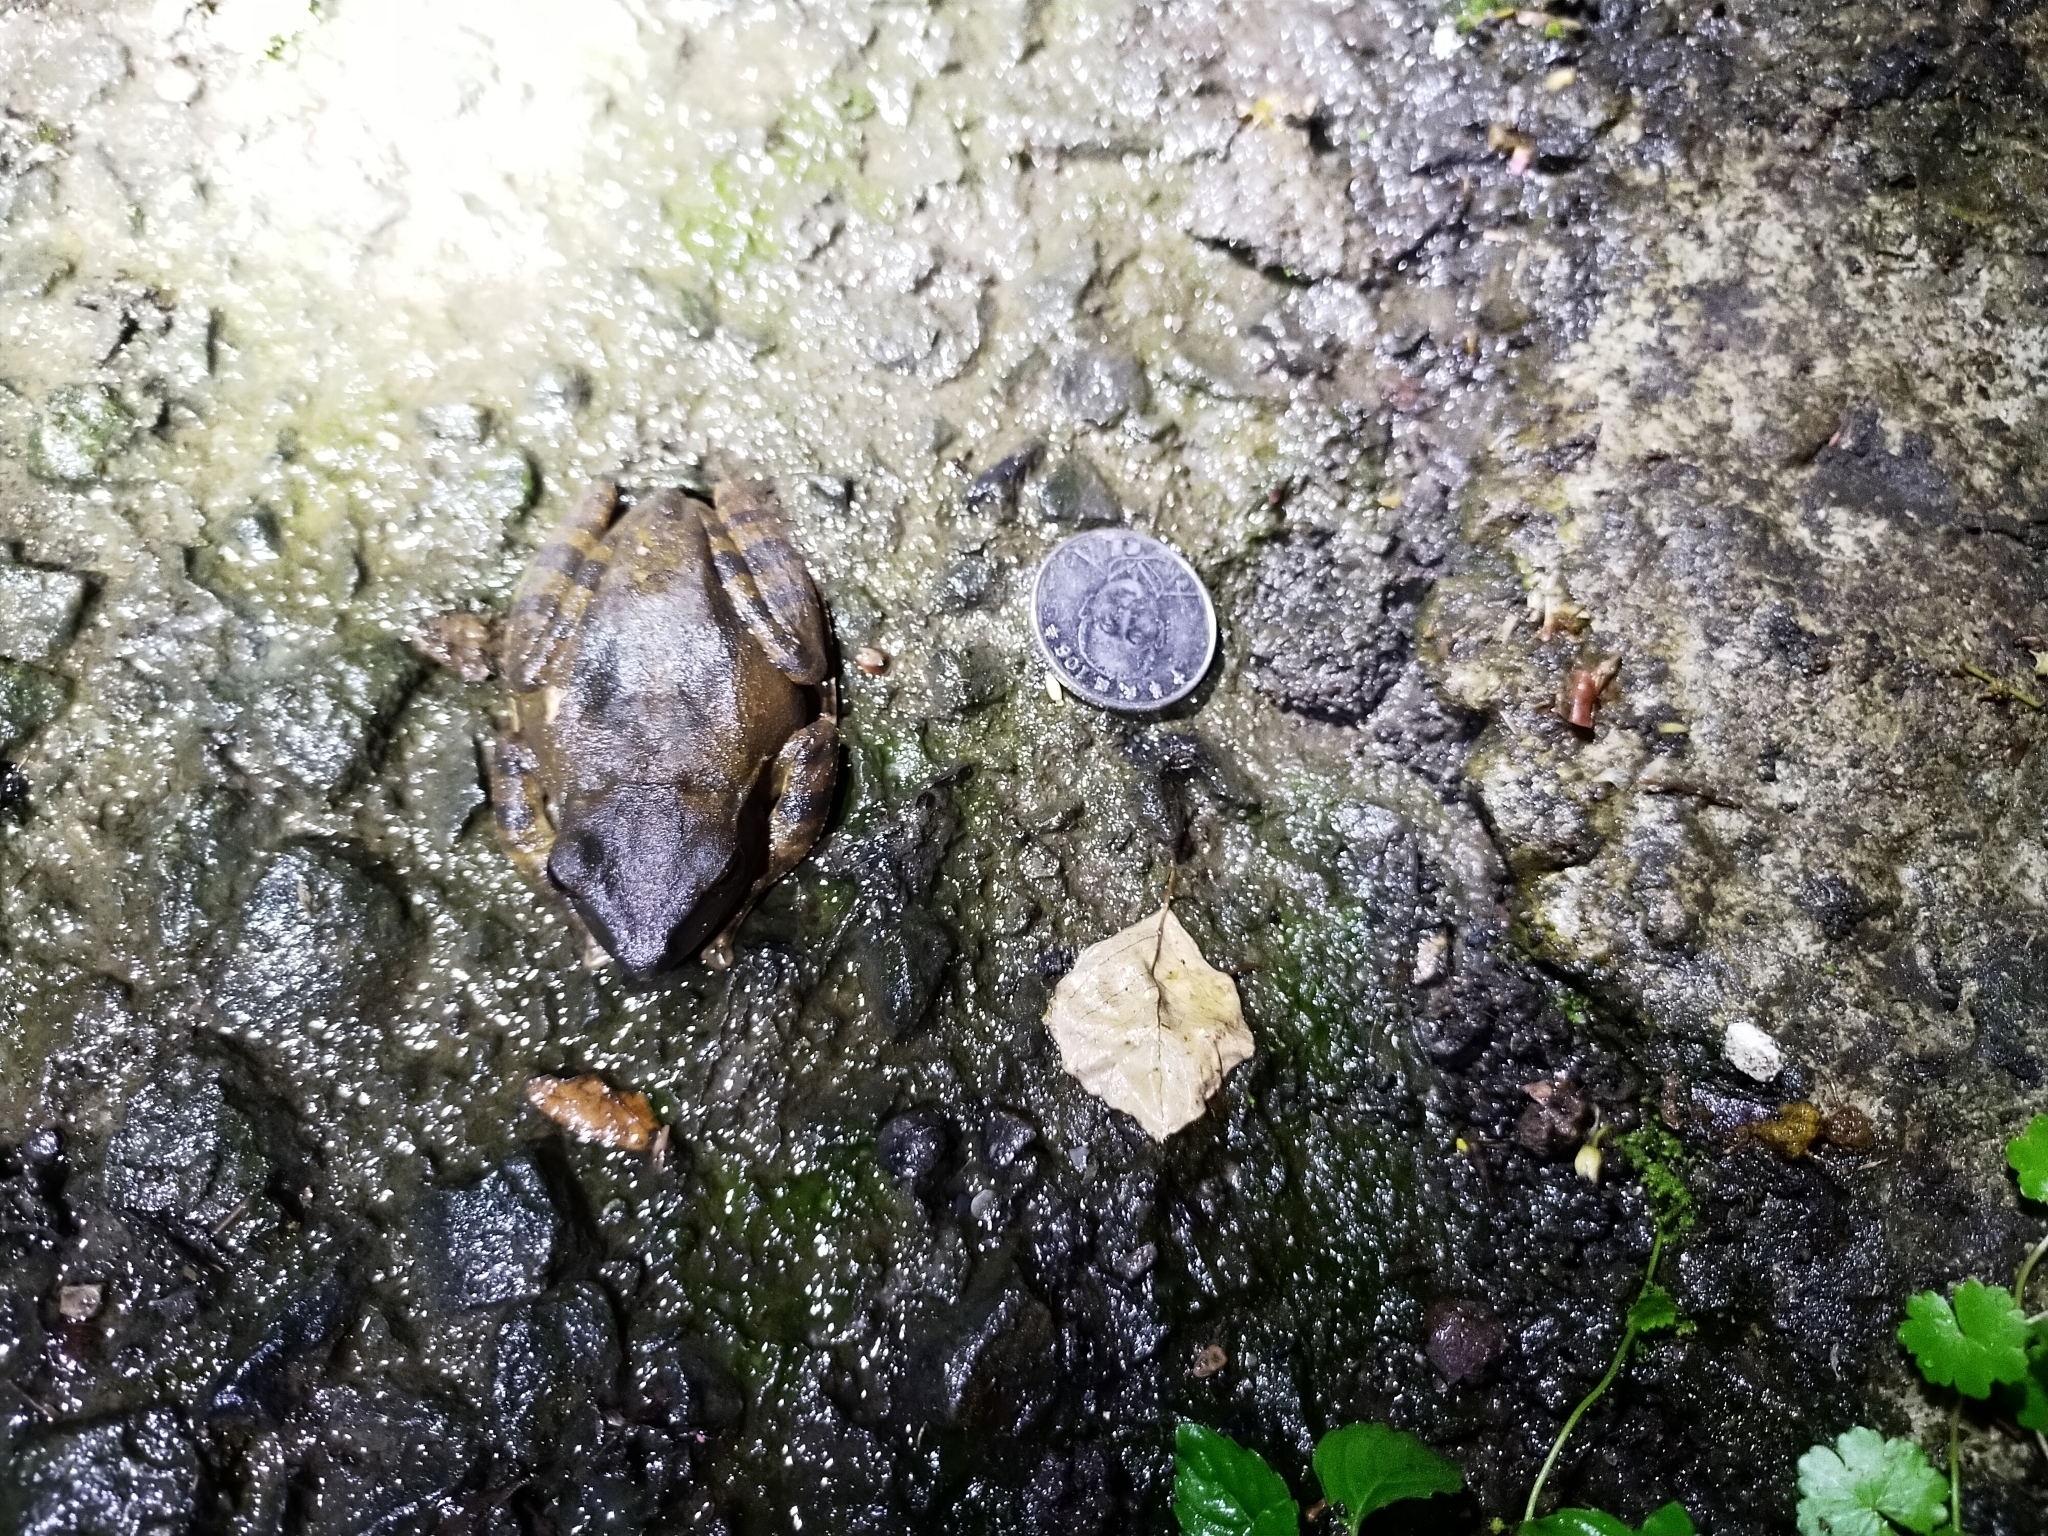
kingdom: Animalia
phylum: Chordata
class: Amphibia
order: Anura
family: Rhacophoridae
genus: Polypedates
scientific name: Polypedates megacephalus
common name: Hong kong whipping frog
